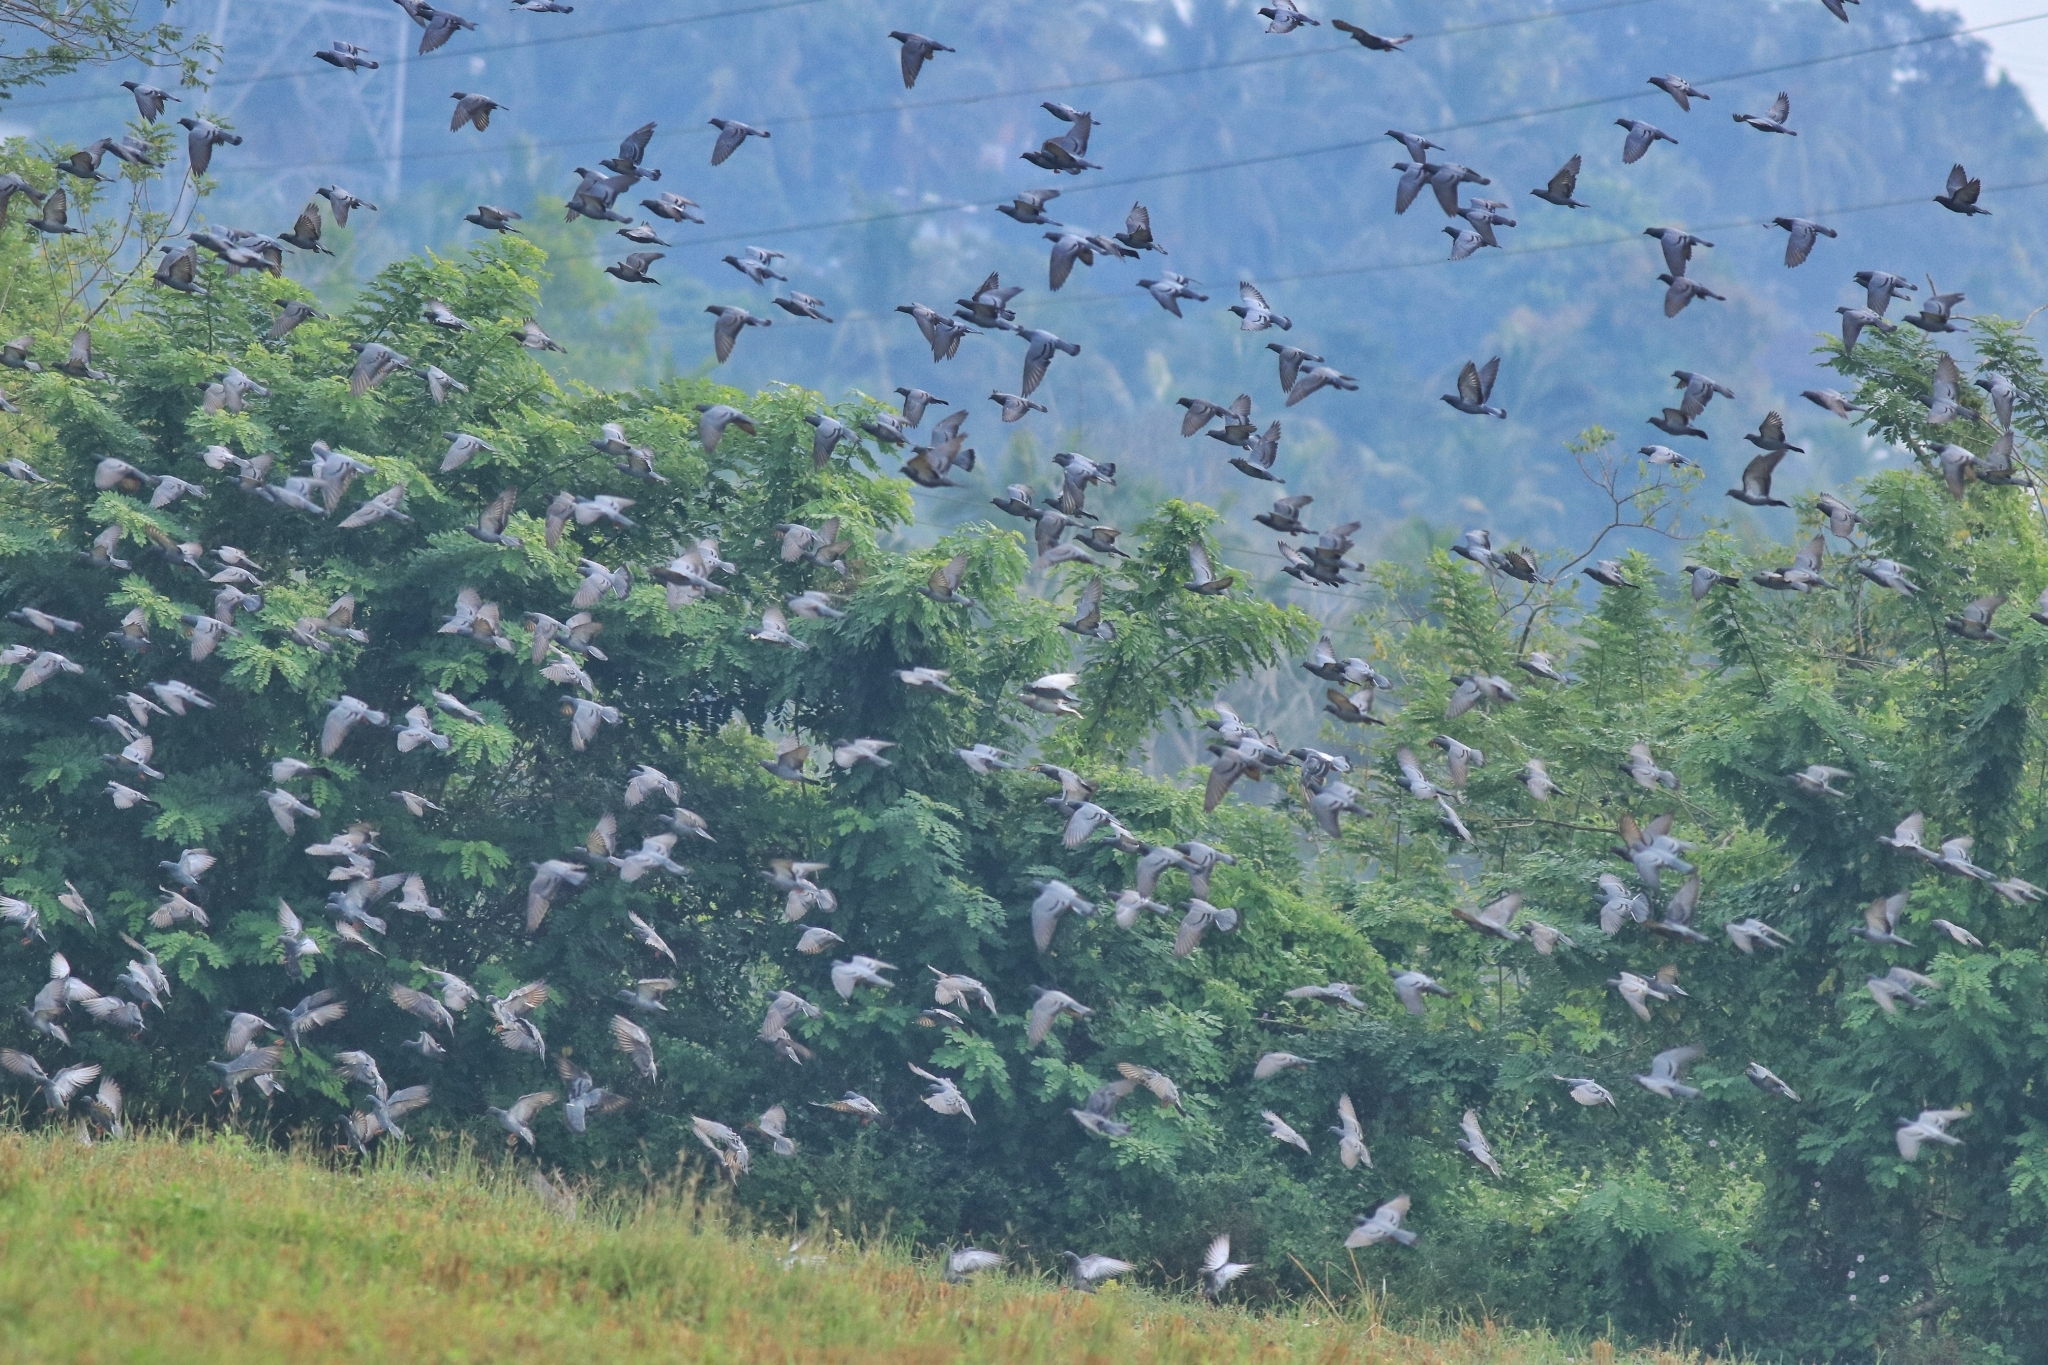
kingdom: Animalia
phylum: Chordata
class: Aves
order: Columbiformes
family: Columbidae
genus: Columba
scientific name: Columba livia
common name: Rock pigeon
